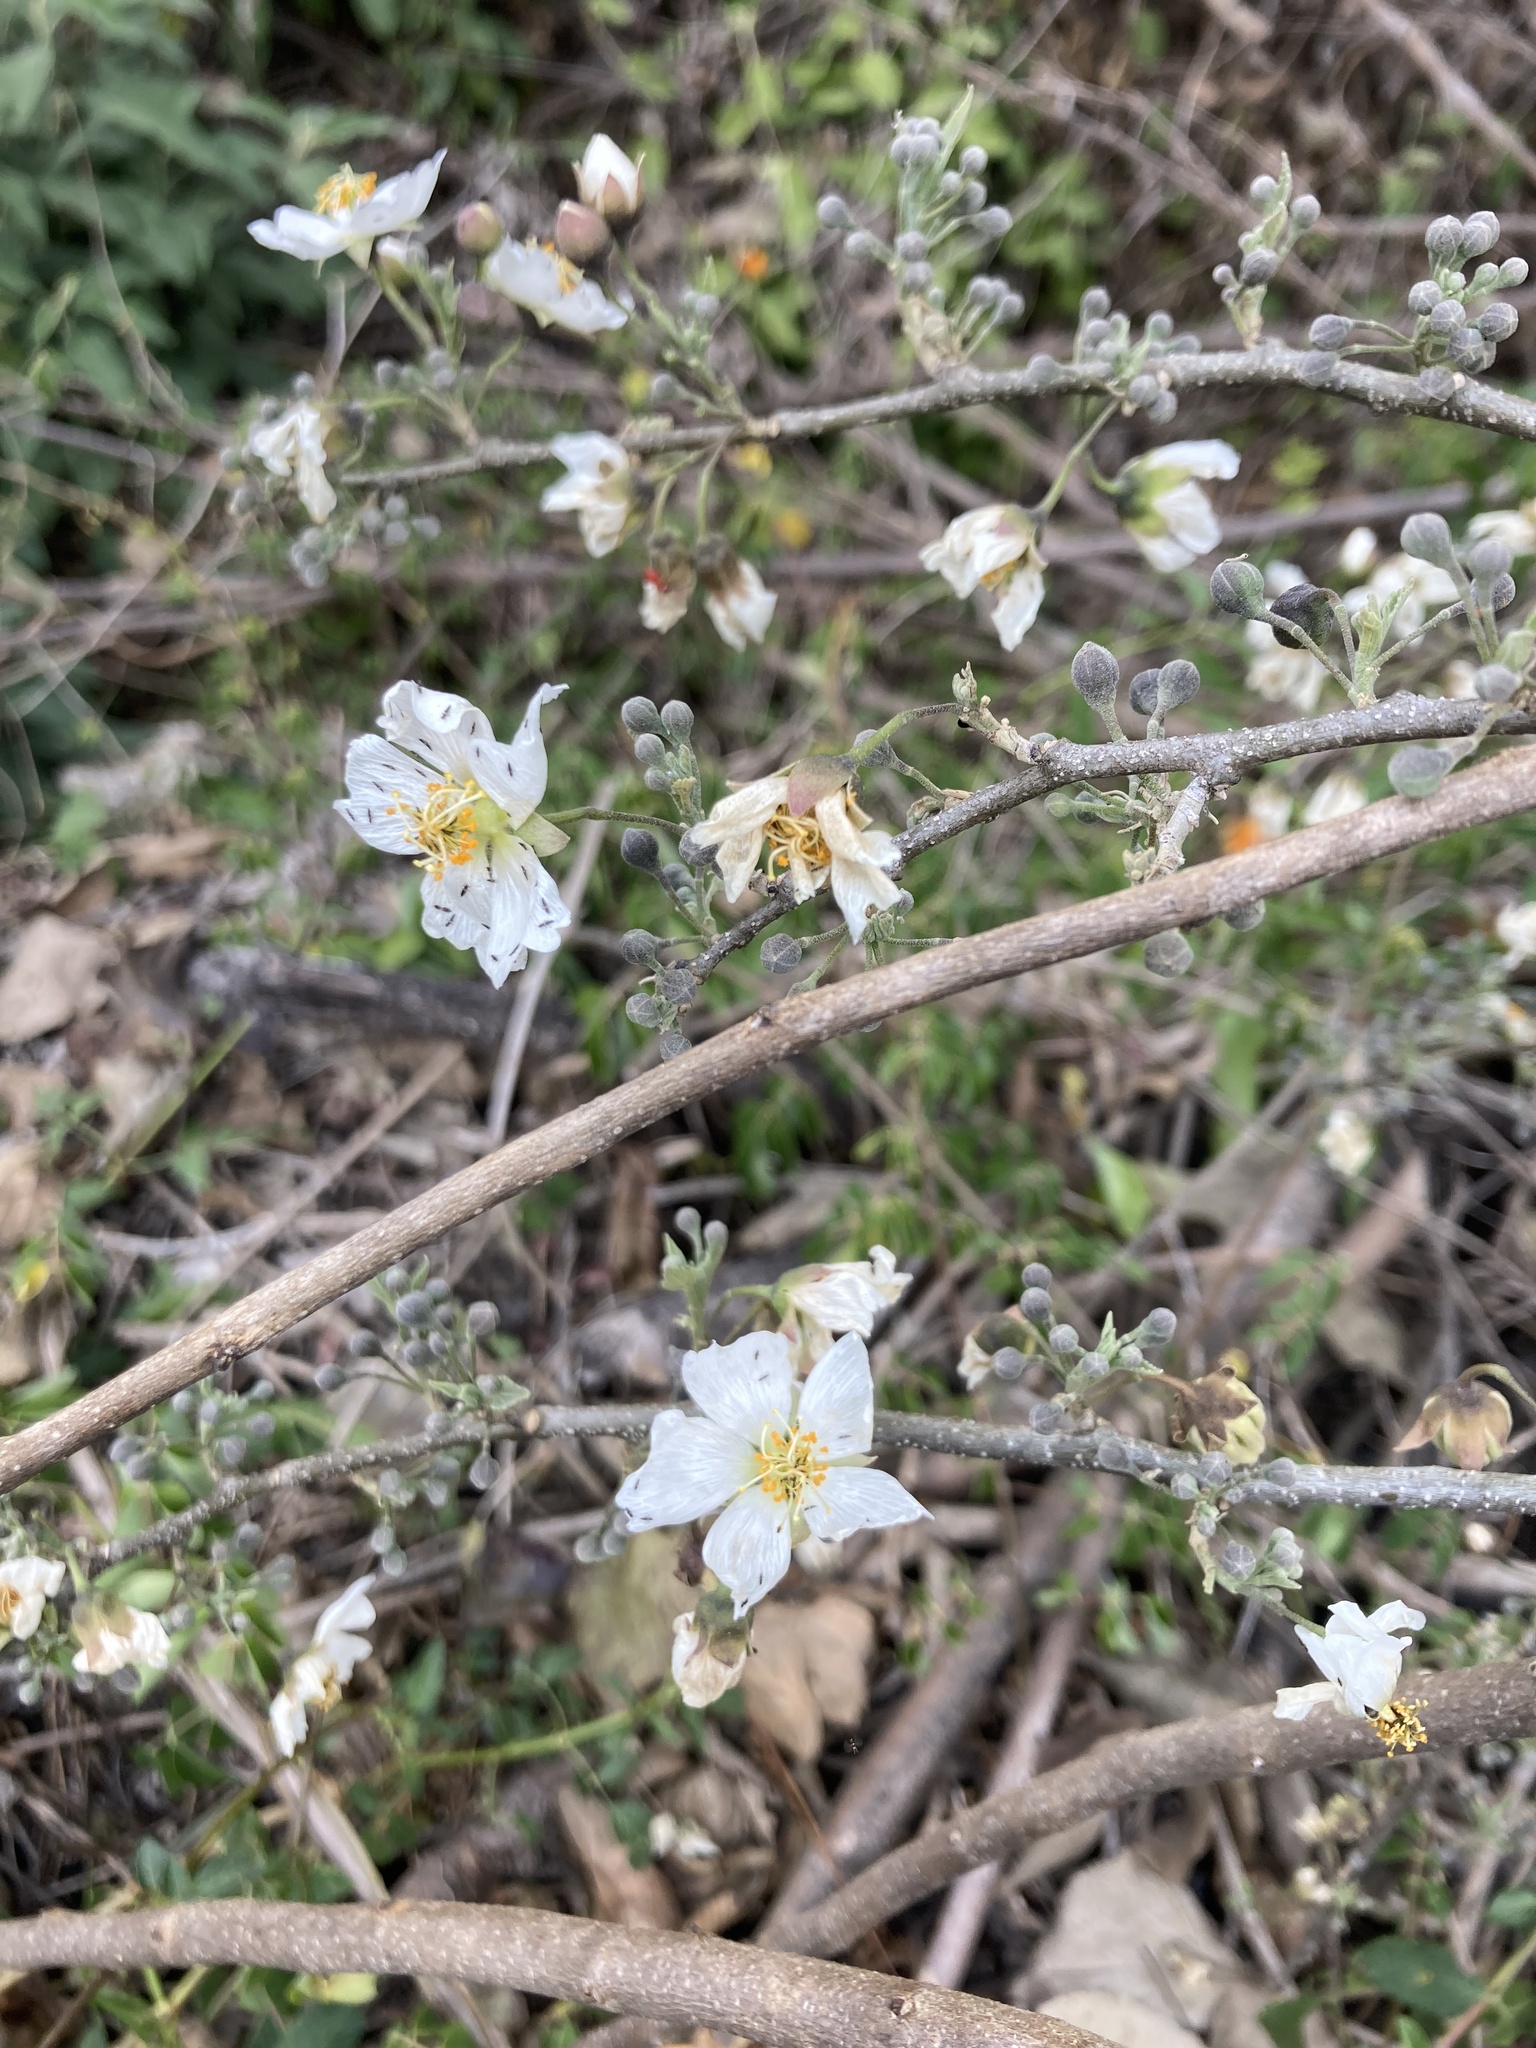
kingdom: Plantae
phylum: Tracheophyta
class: Magnoliopsida
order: Malvales
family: Malvaceae
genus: Robinsonella
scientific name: Robinsonella glabrifolia
